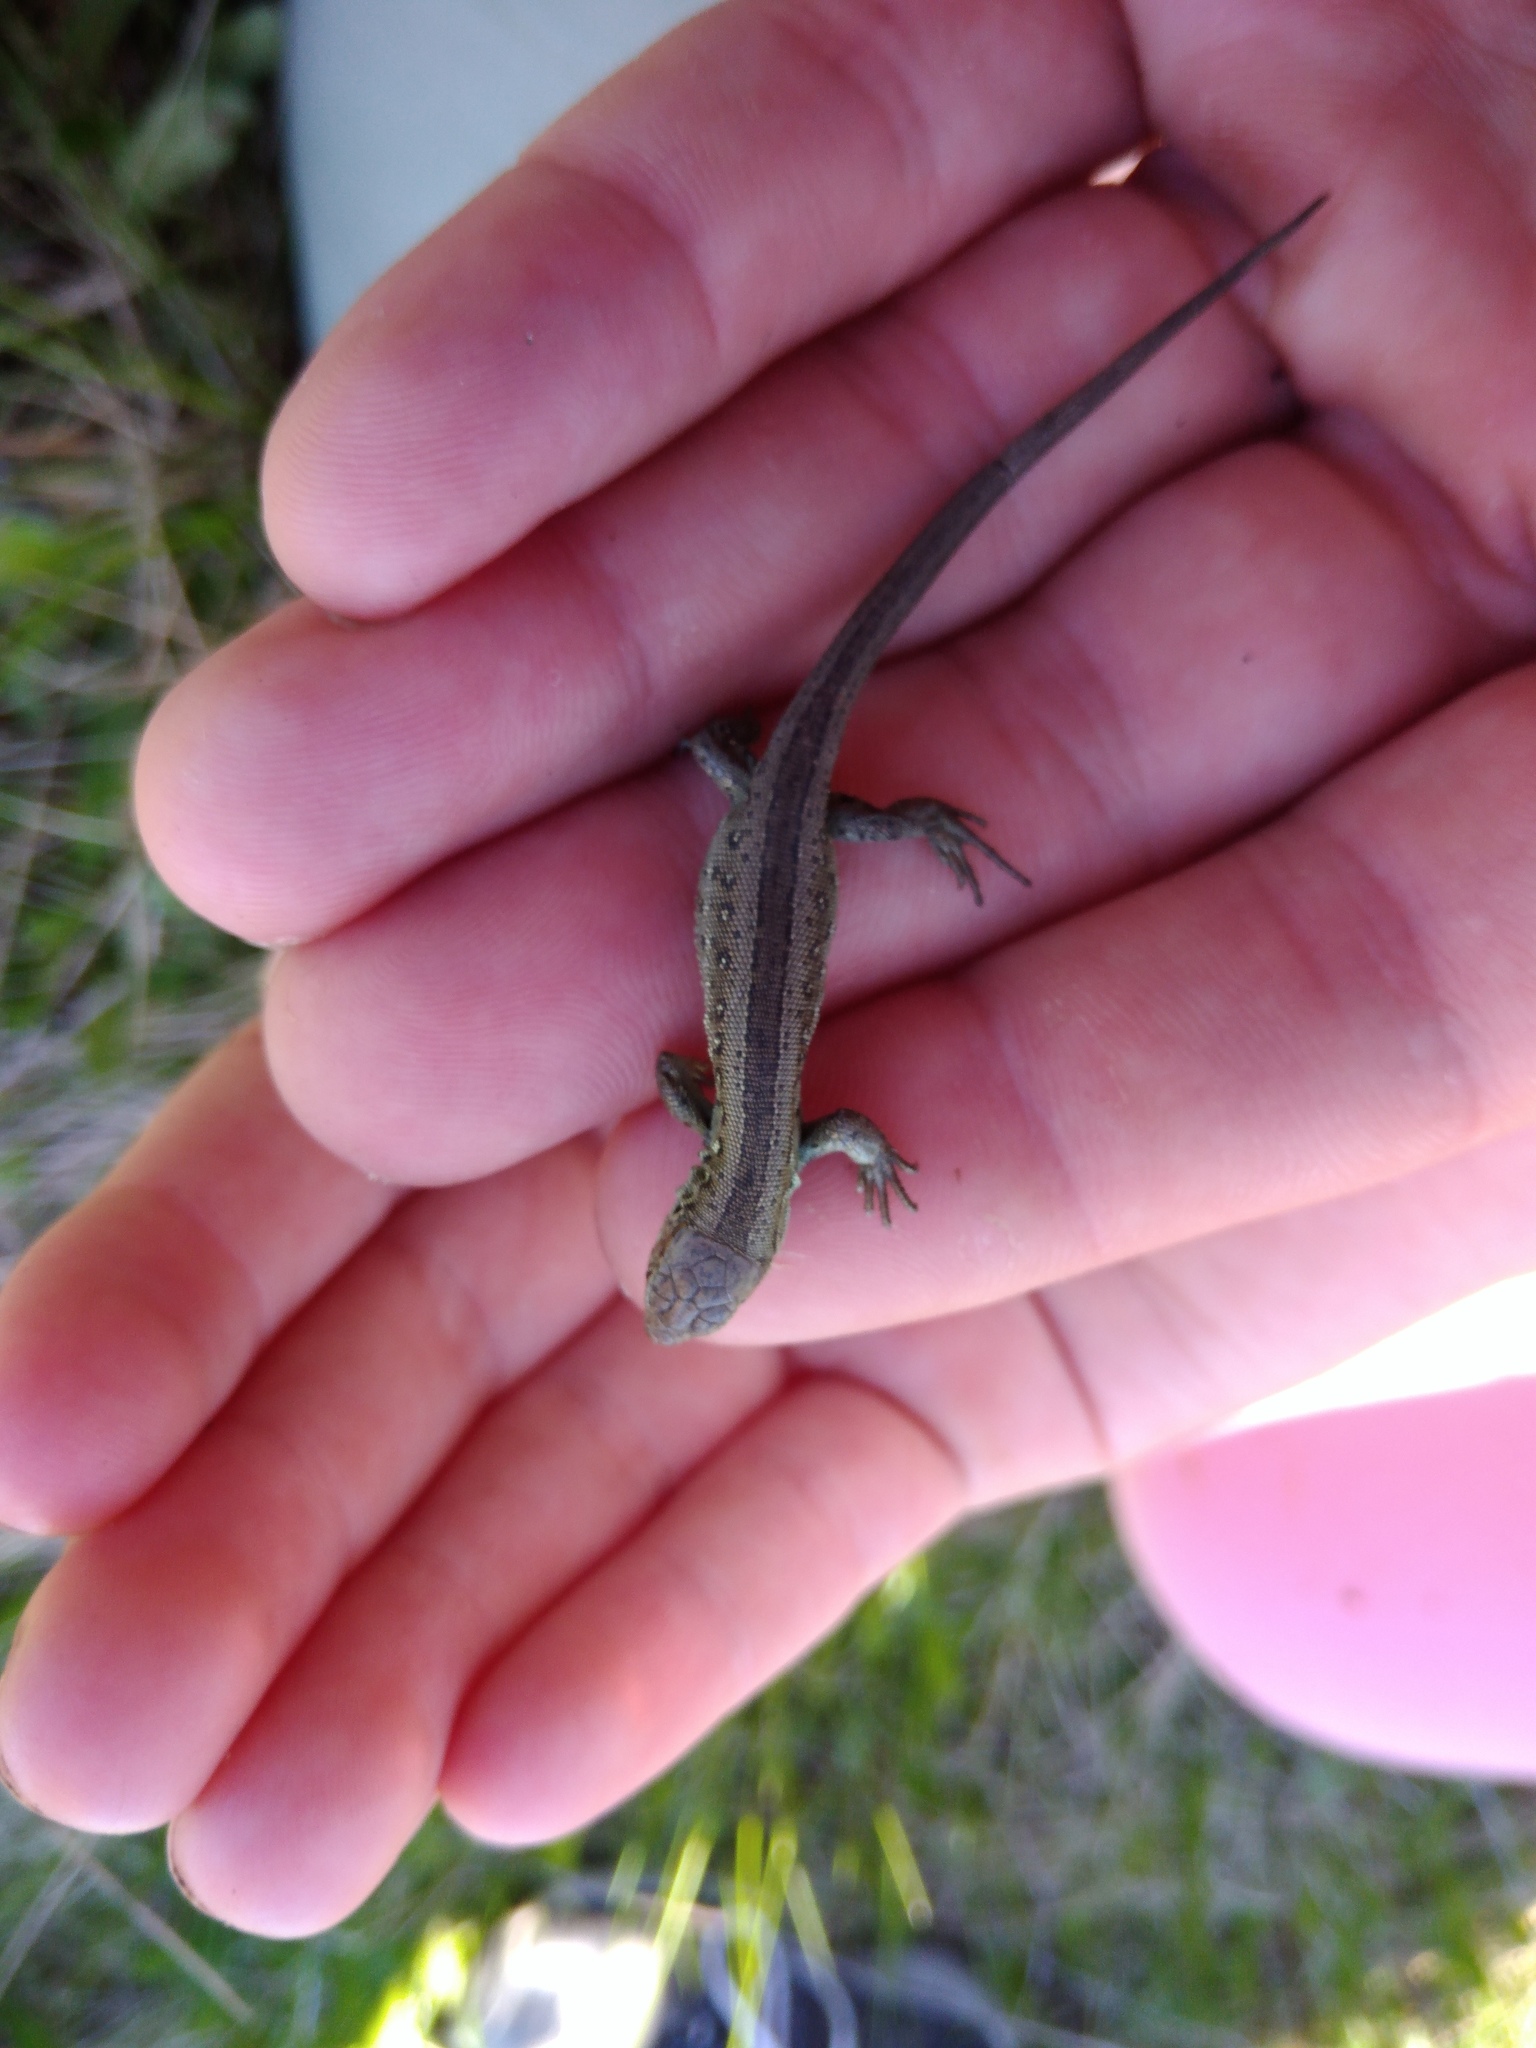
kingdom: Animalia
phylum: Chordata
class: Squamata
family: Lacertidae
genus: Lacerta
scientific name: Lacerta agilis
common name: Sand lizard
